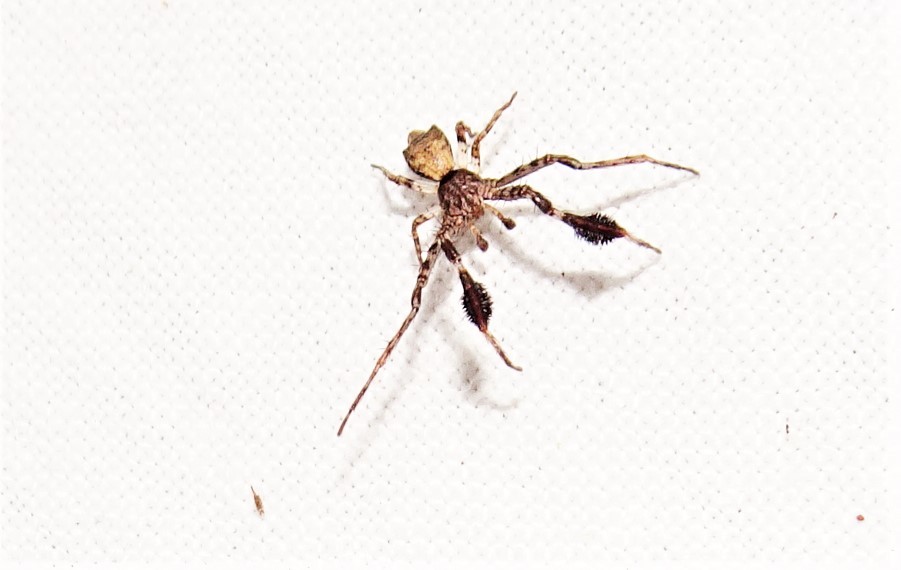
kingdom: Animalia
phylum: Arthropoda
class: Arachnida
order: Araneae
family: Thomisidae
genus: Stephanopis
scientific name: Stephanopis barbipes
